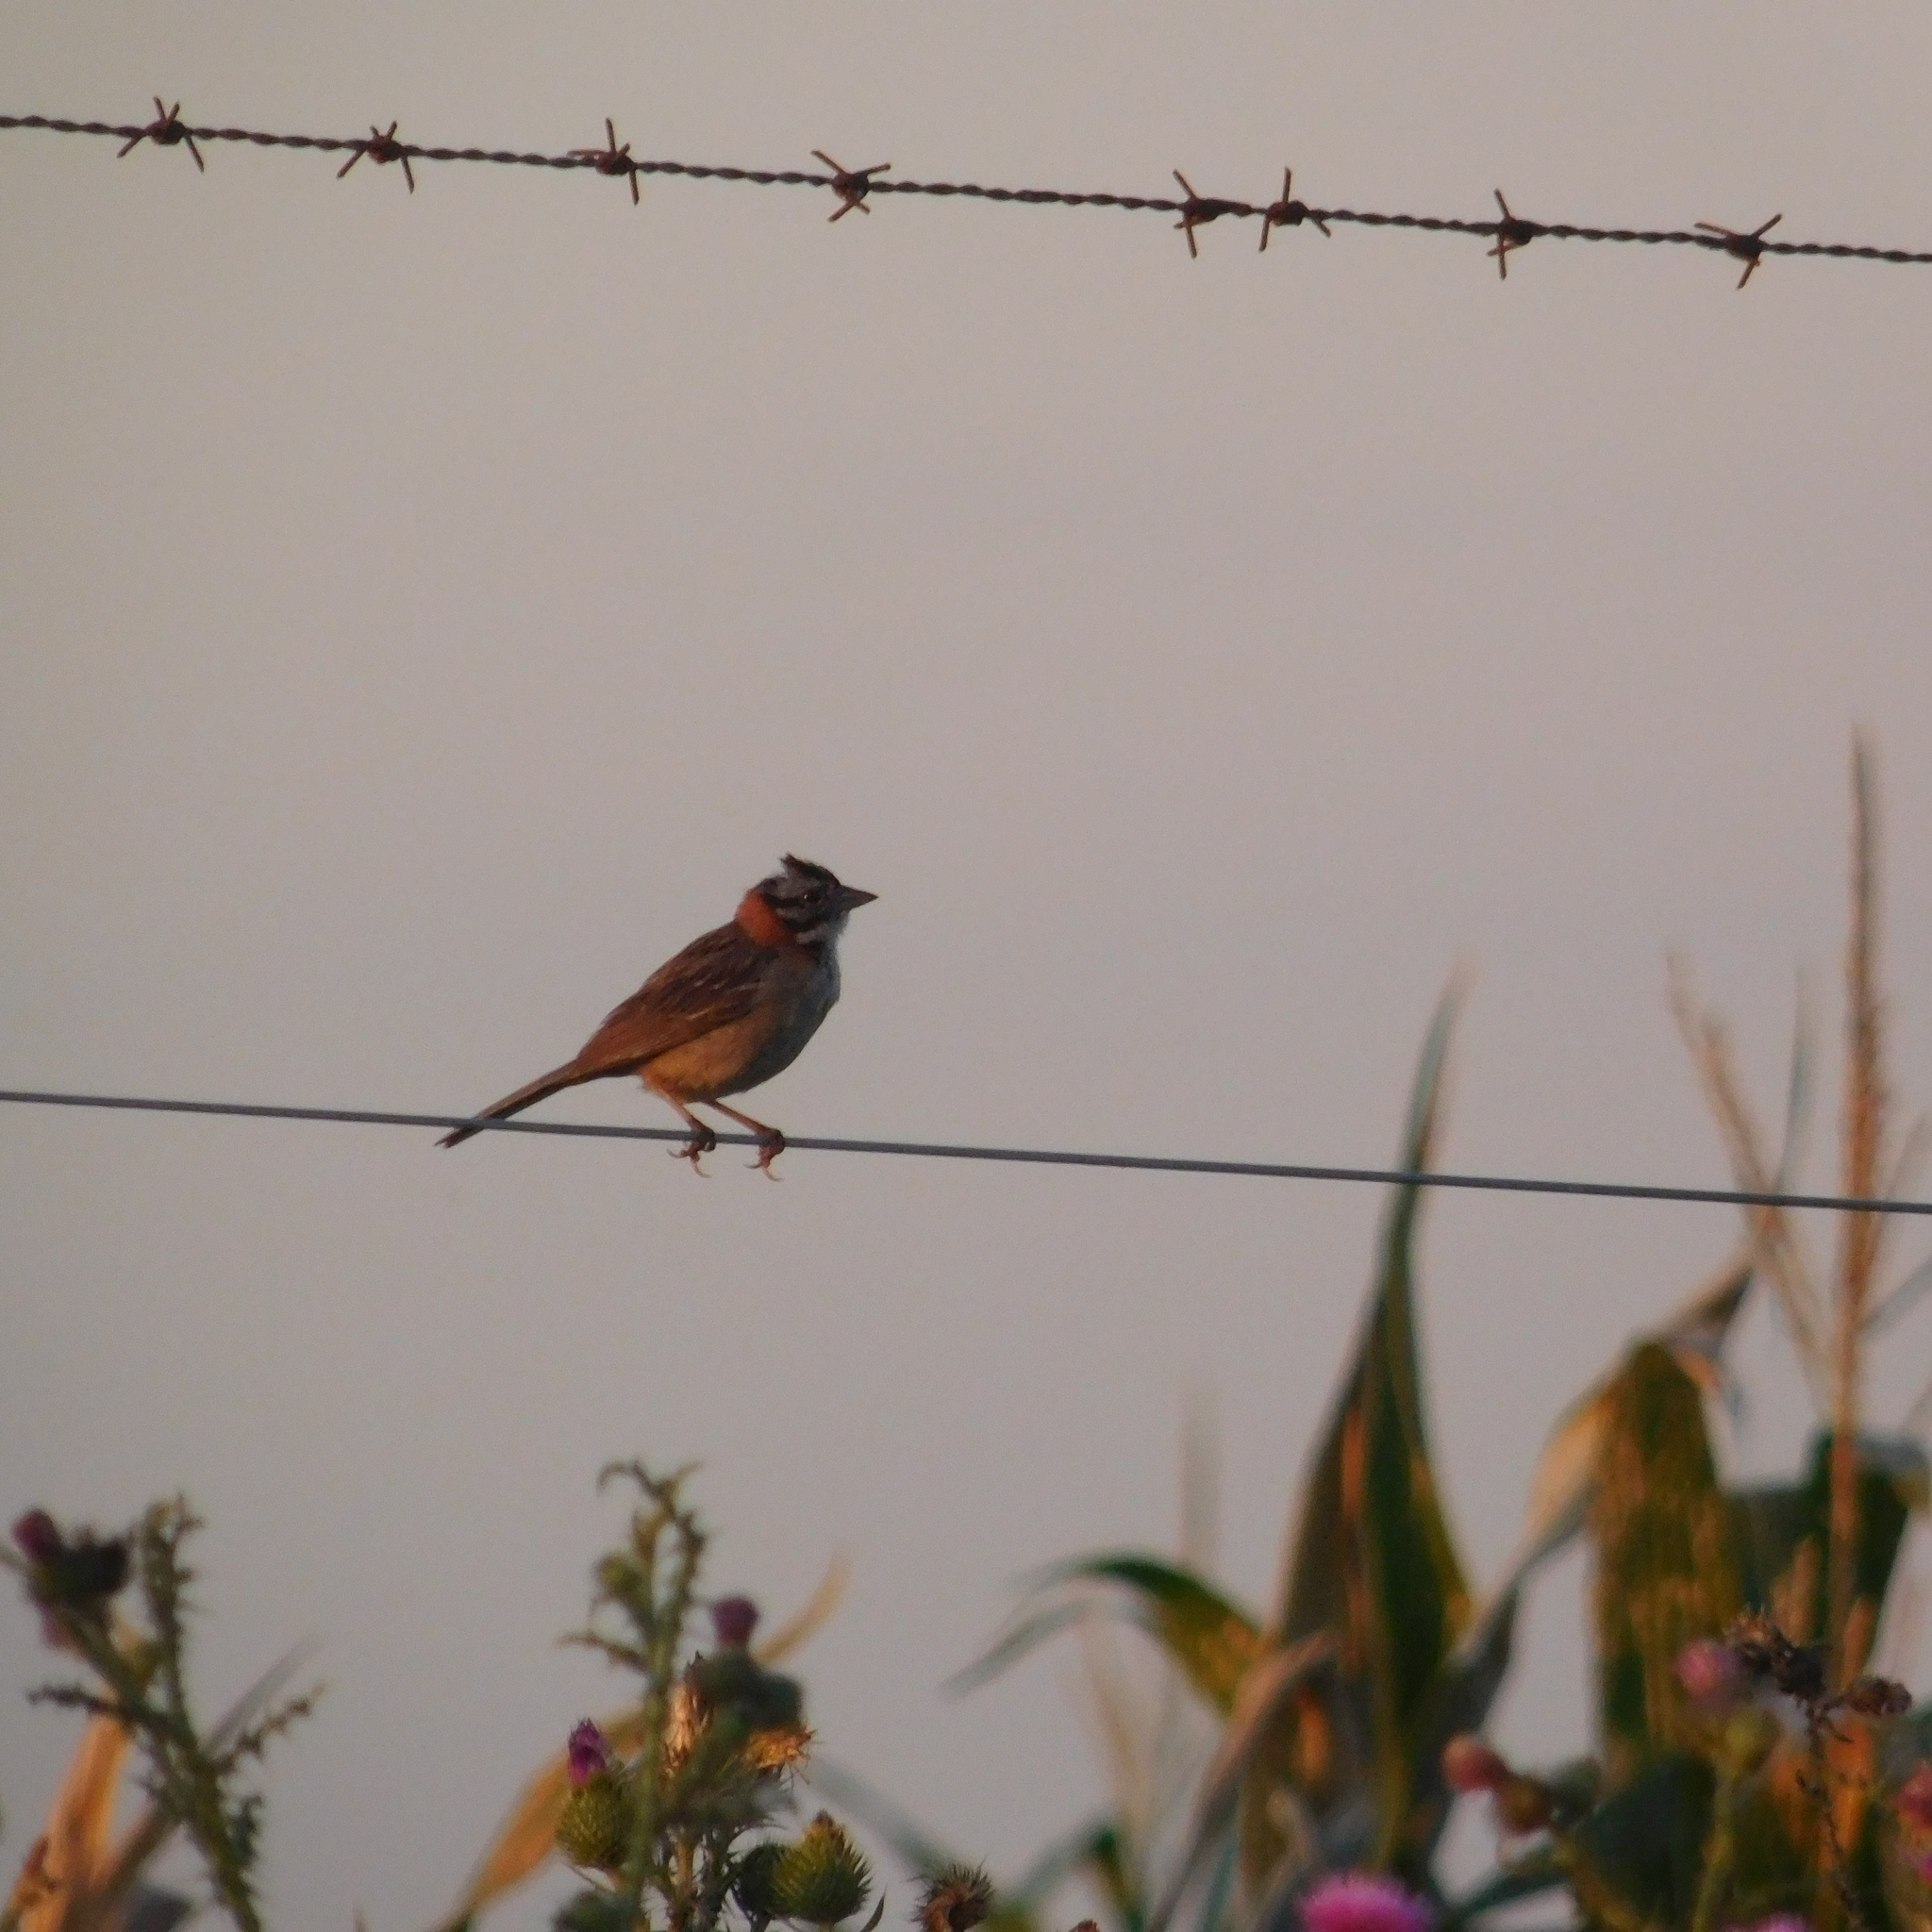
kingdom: Animalia
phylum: Chordata
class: Aves
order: Passeriformes
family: Passerellidae
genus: Zonotrichia
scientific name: Zonotrichia capensis
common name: Rufous-collared sparrow
